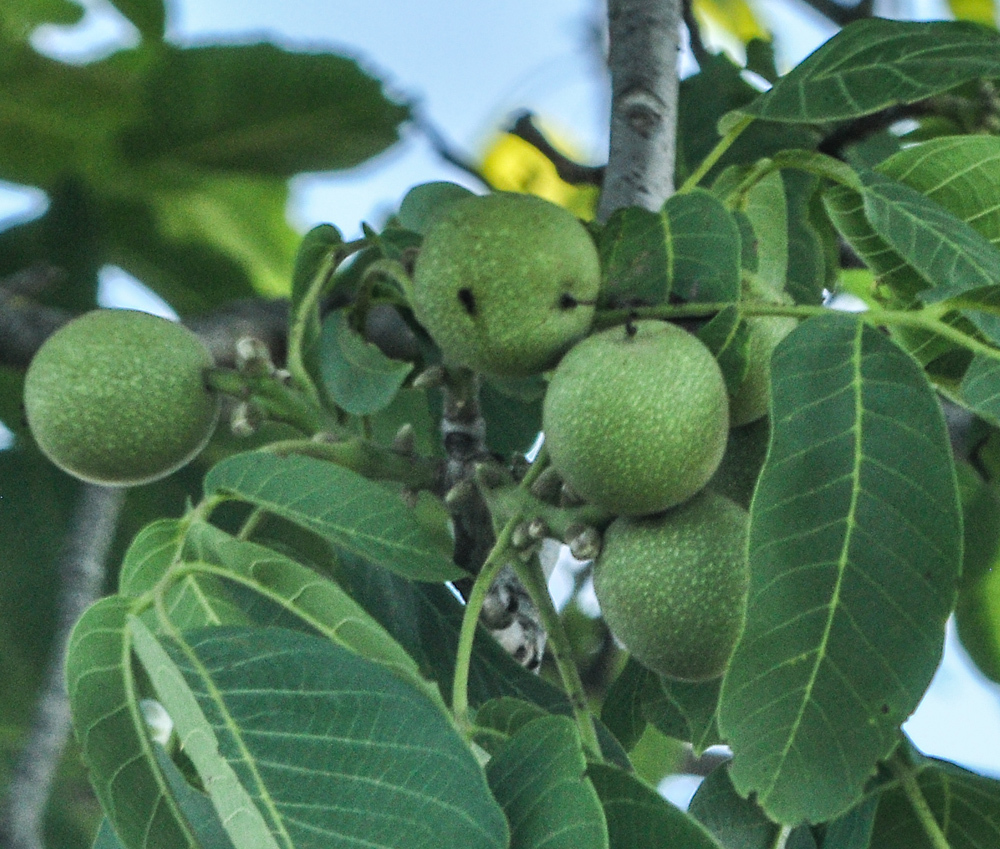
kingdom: Plantae
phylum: Tracheophyta
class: Magnoliopsida
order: Fagales
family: Juglandaceae
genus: Juglans
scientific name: Juglans nigra
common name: Black walnut
